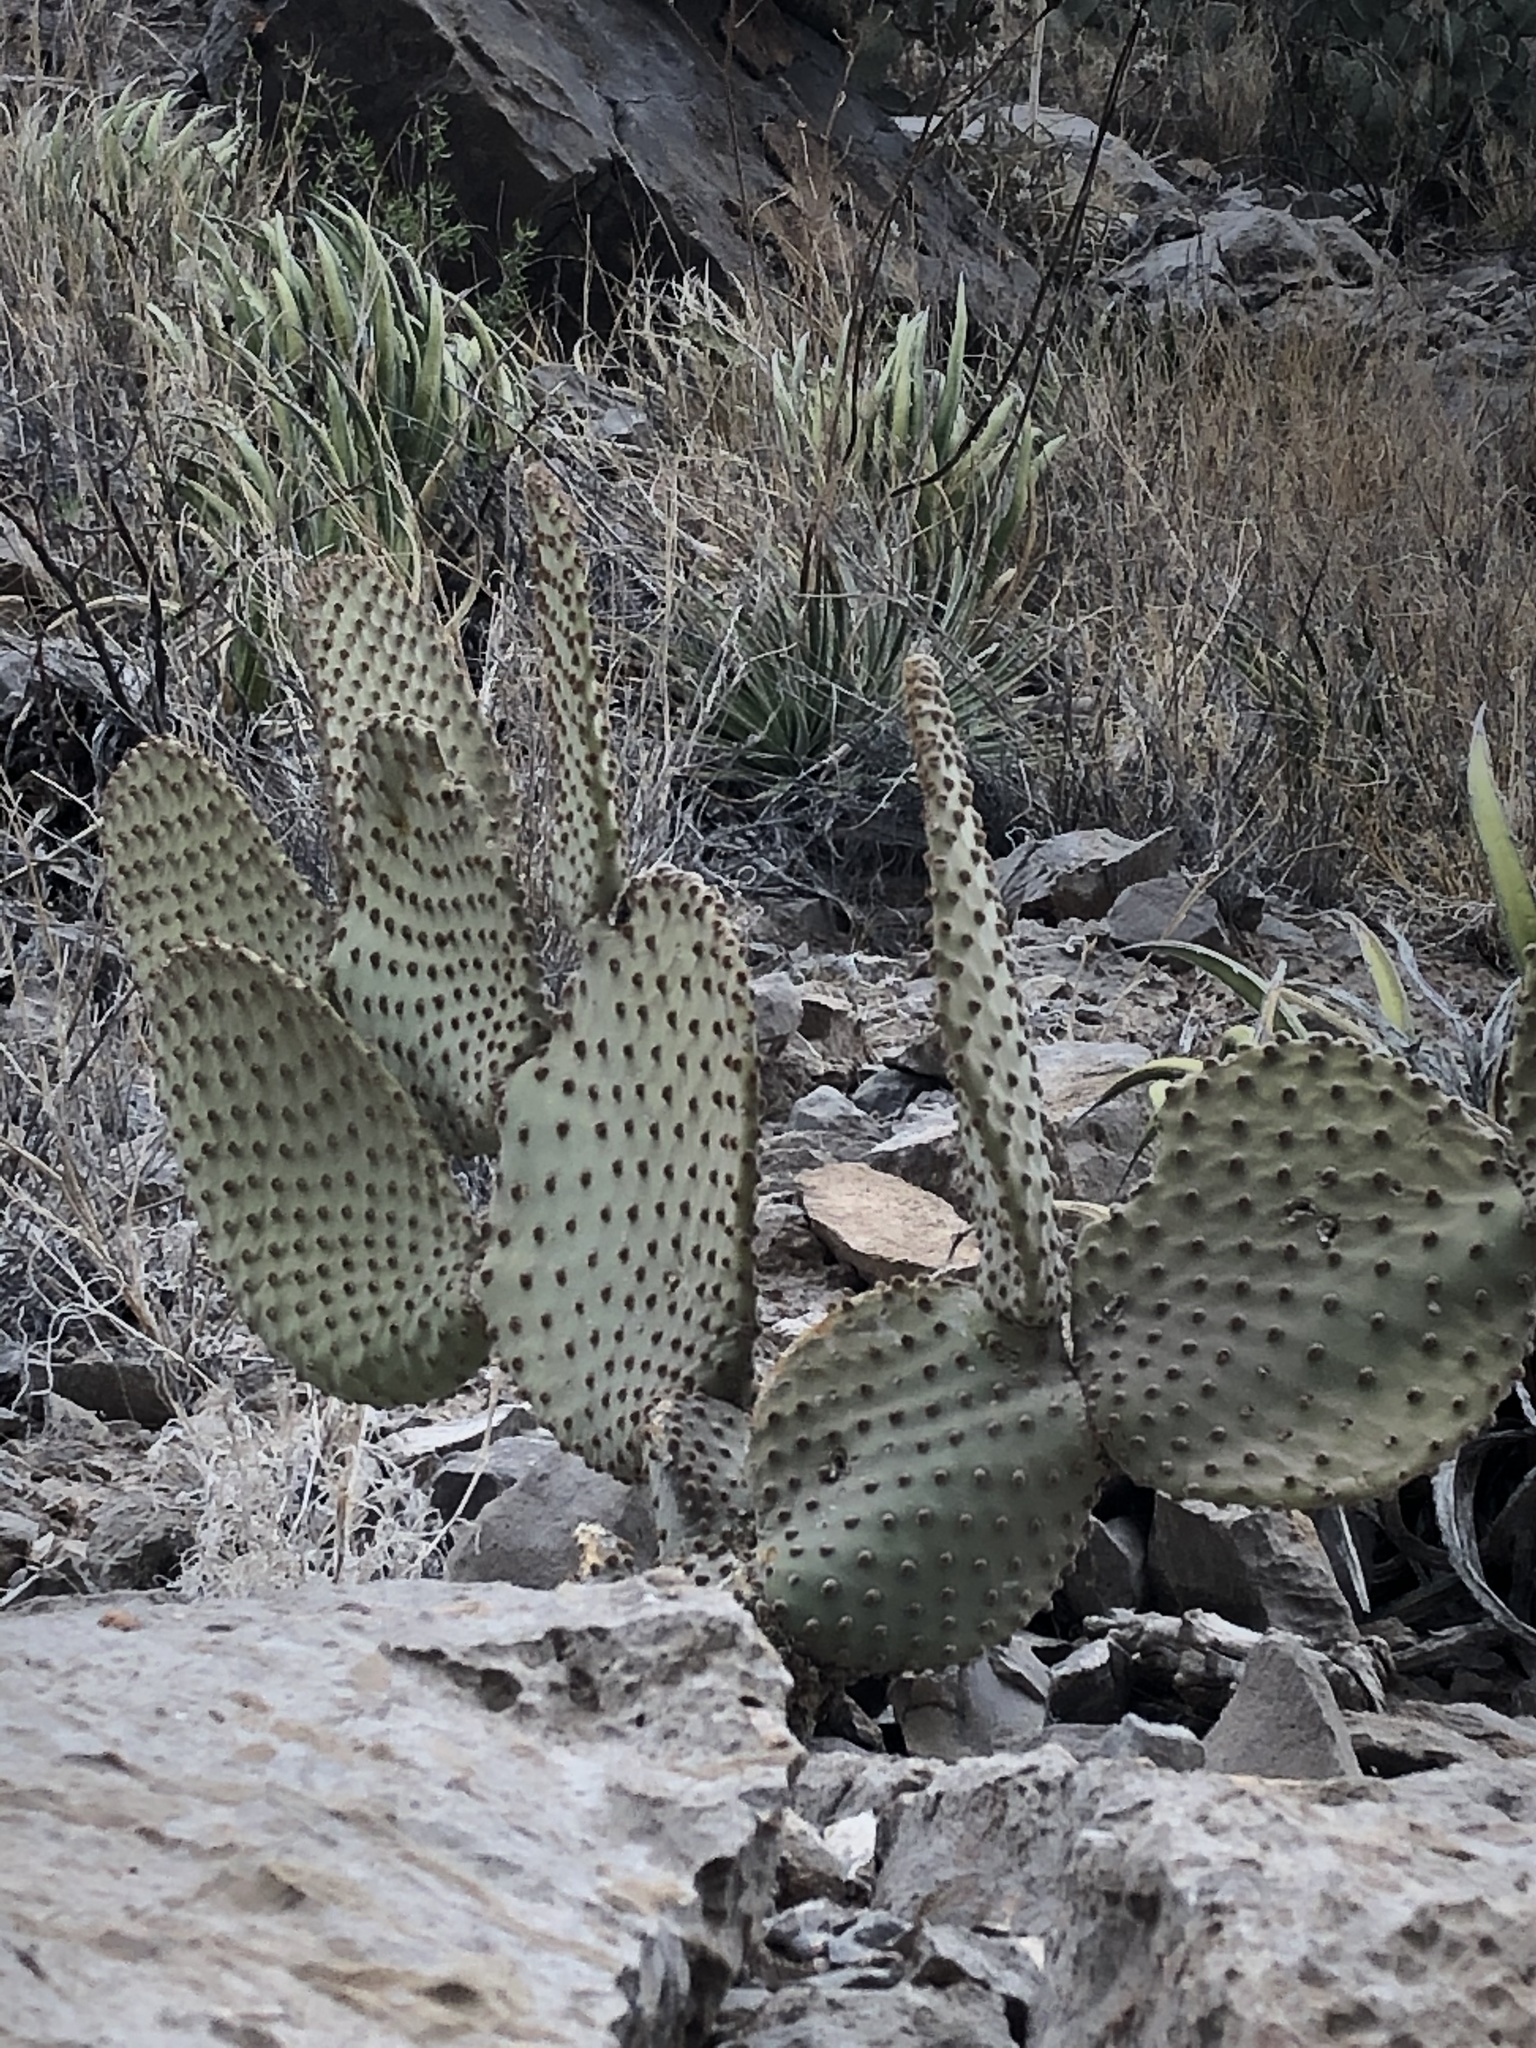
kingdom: Plantae
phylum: Tracheophyta
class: Magnoliopsida
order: Caryophyllales
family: Cactaceae
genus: Opuntia
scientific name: Opuntia rufida
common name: Blind pricklypear
